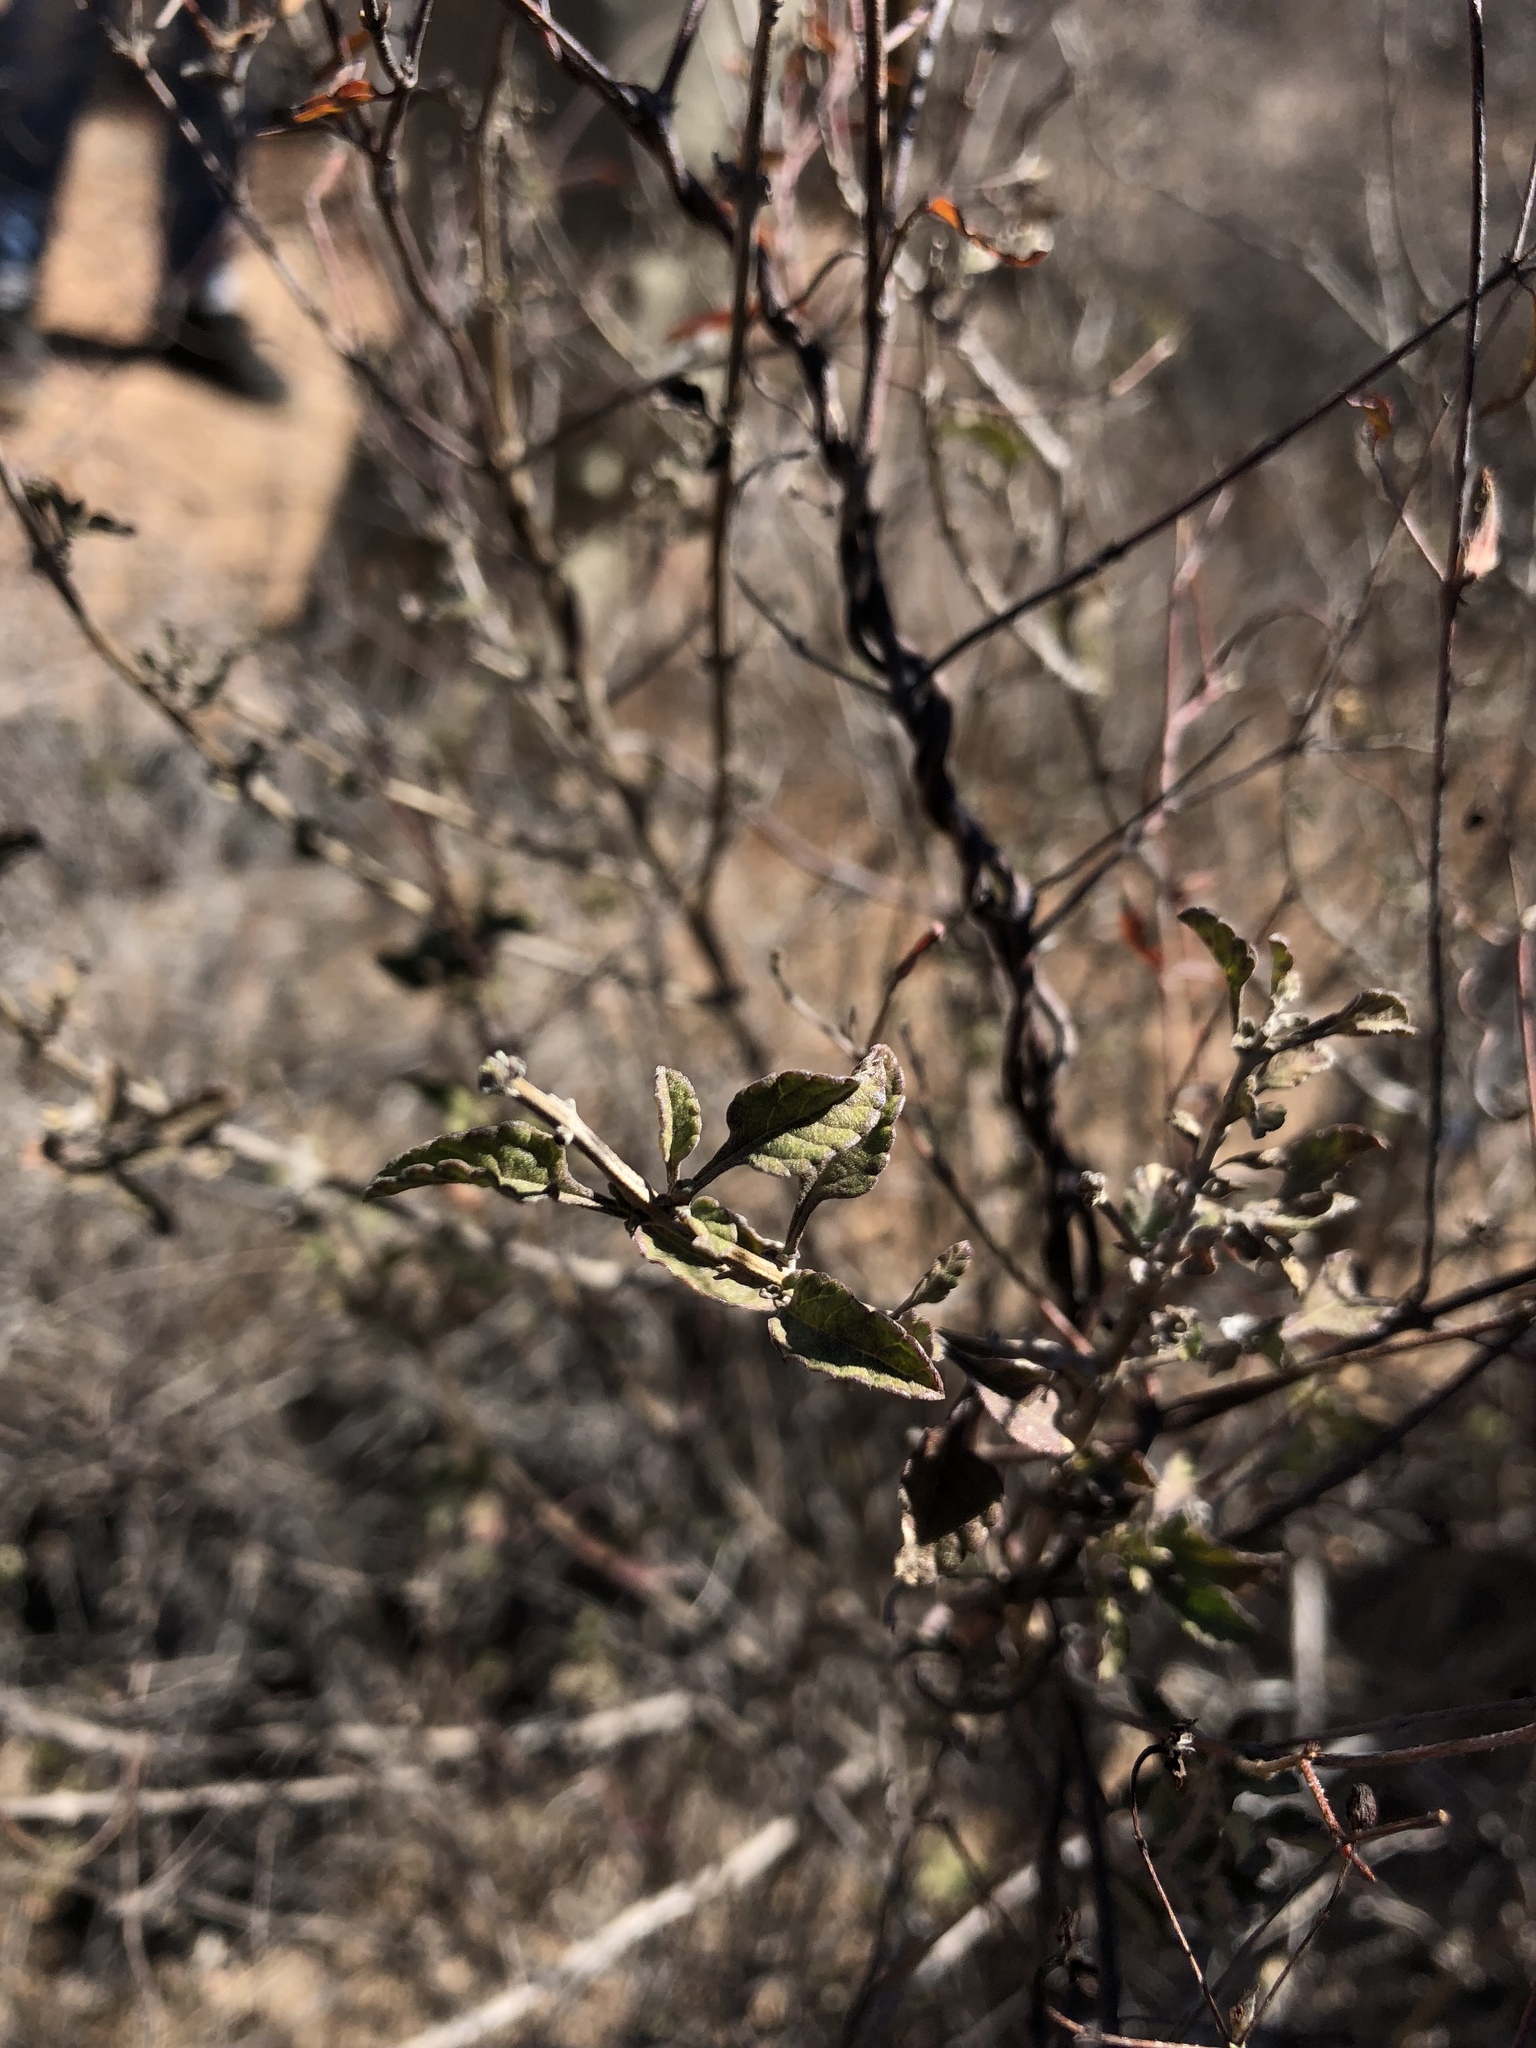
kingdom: Plantae
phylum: Tracheophyta
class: Magnoliopsida
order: Lamiales
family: Verbenaceae
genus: Lippia
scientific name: Lippia origanoides
